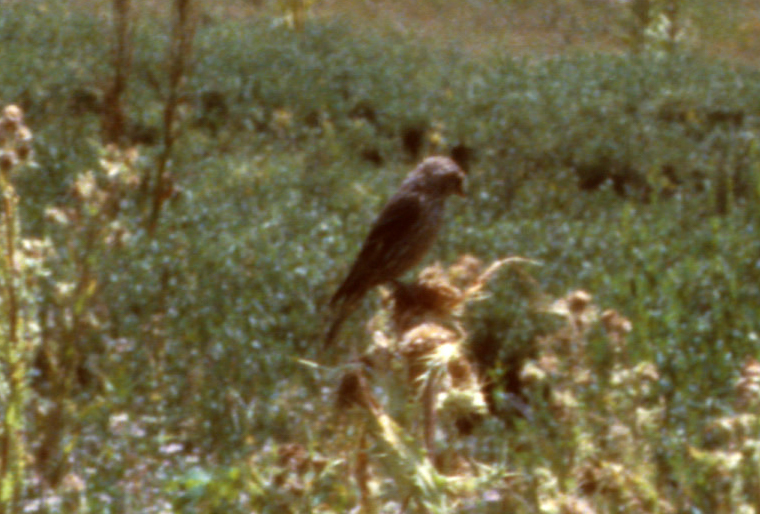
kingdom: Animalia
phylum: Chordata
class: Aves
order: Passeriformes
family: Fringillidae
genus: Spinus
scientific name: Spinus pinus
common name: Pine siskin
